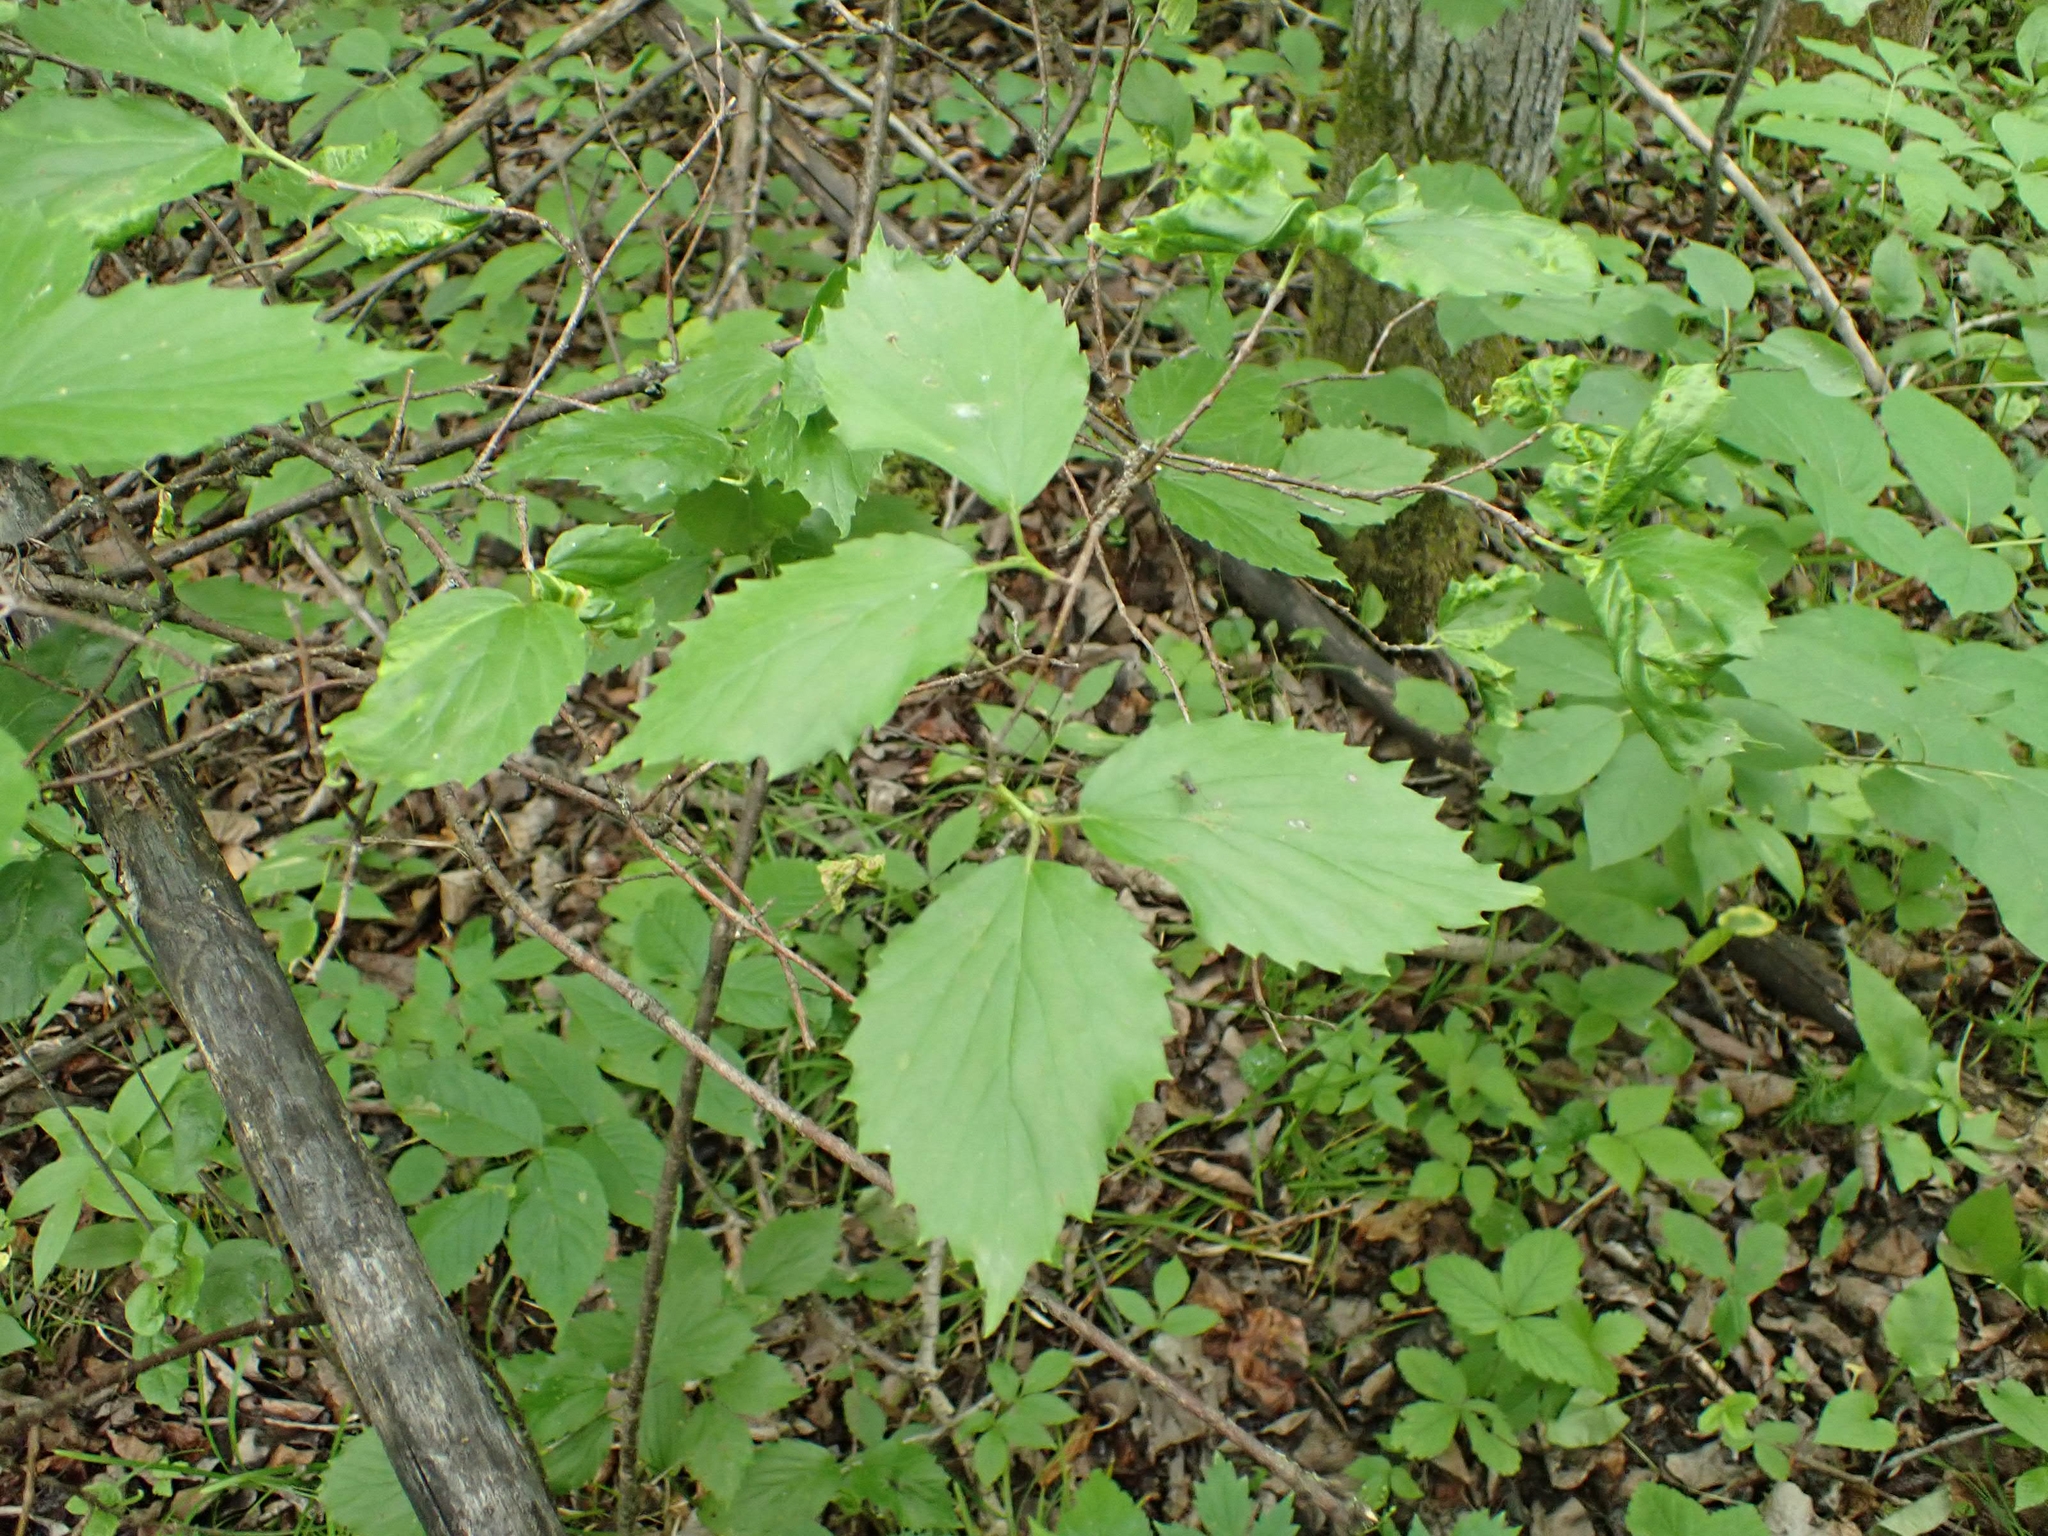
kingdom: Plantae
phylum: Tracheophyta
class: Magnoliopsida
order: Dipsacales
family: Viburnaceae
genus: Viburnum
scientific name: Viburnum rafinesqueanum
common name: Downy arrow-wood
